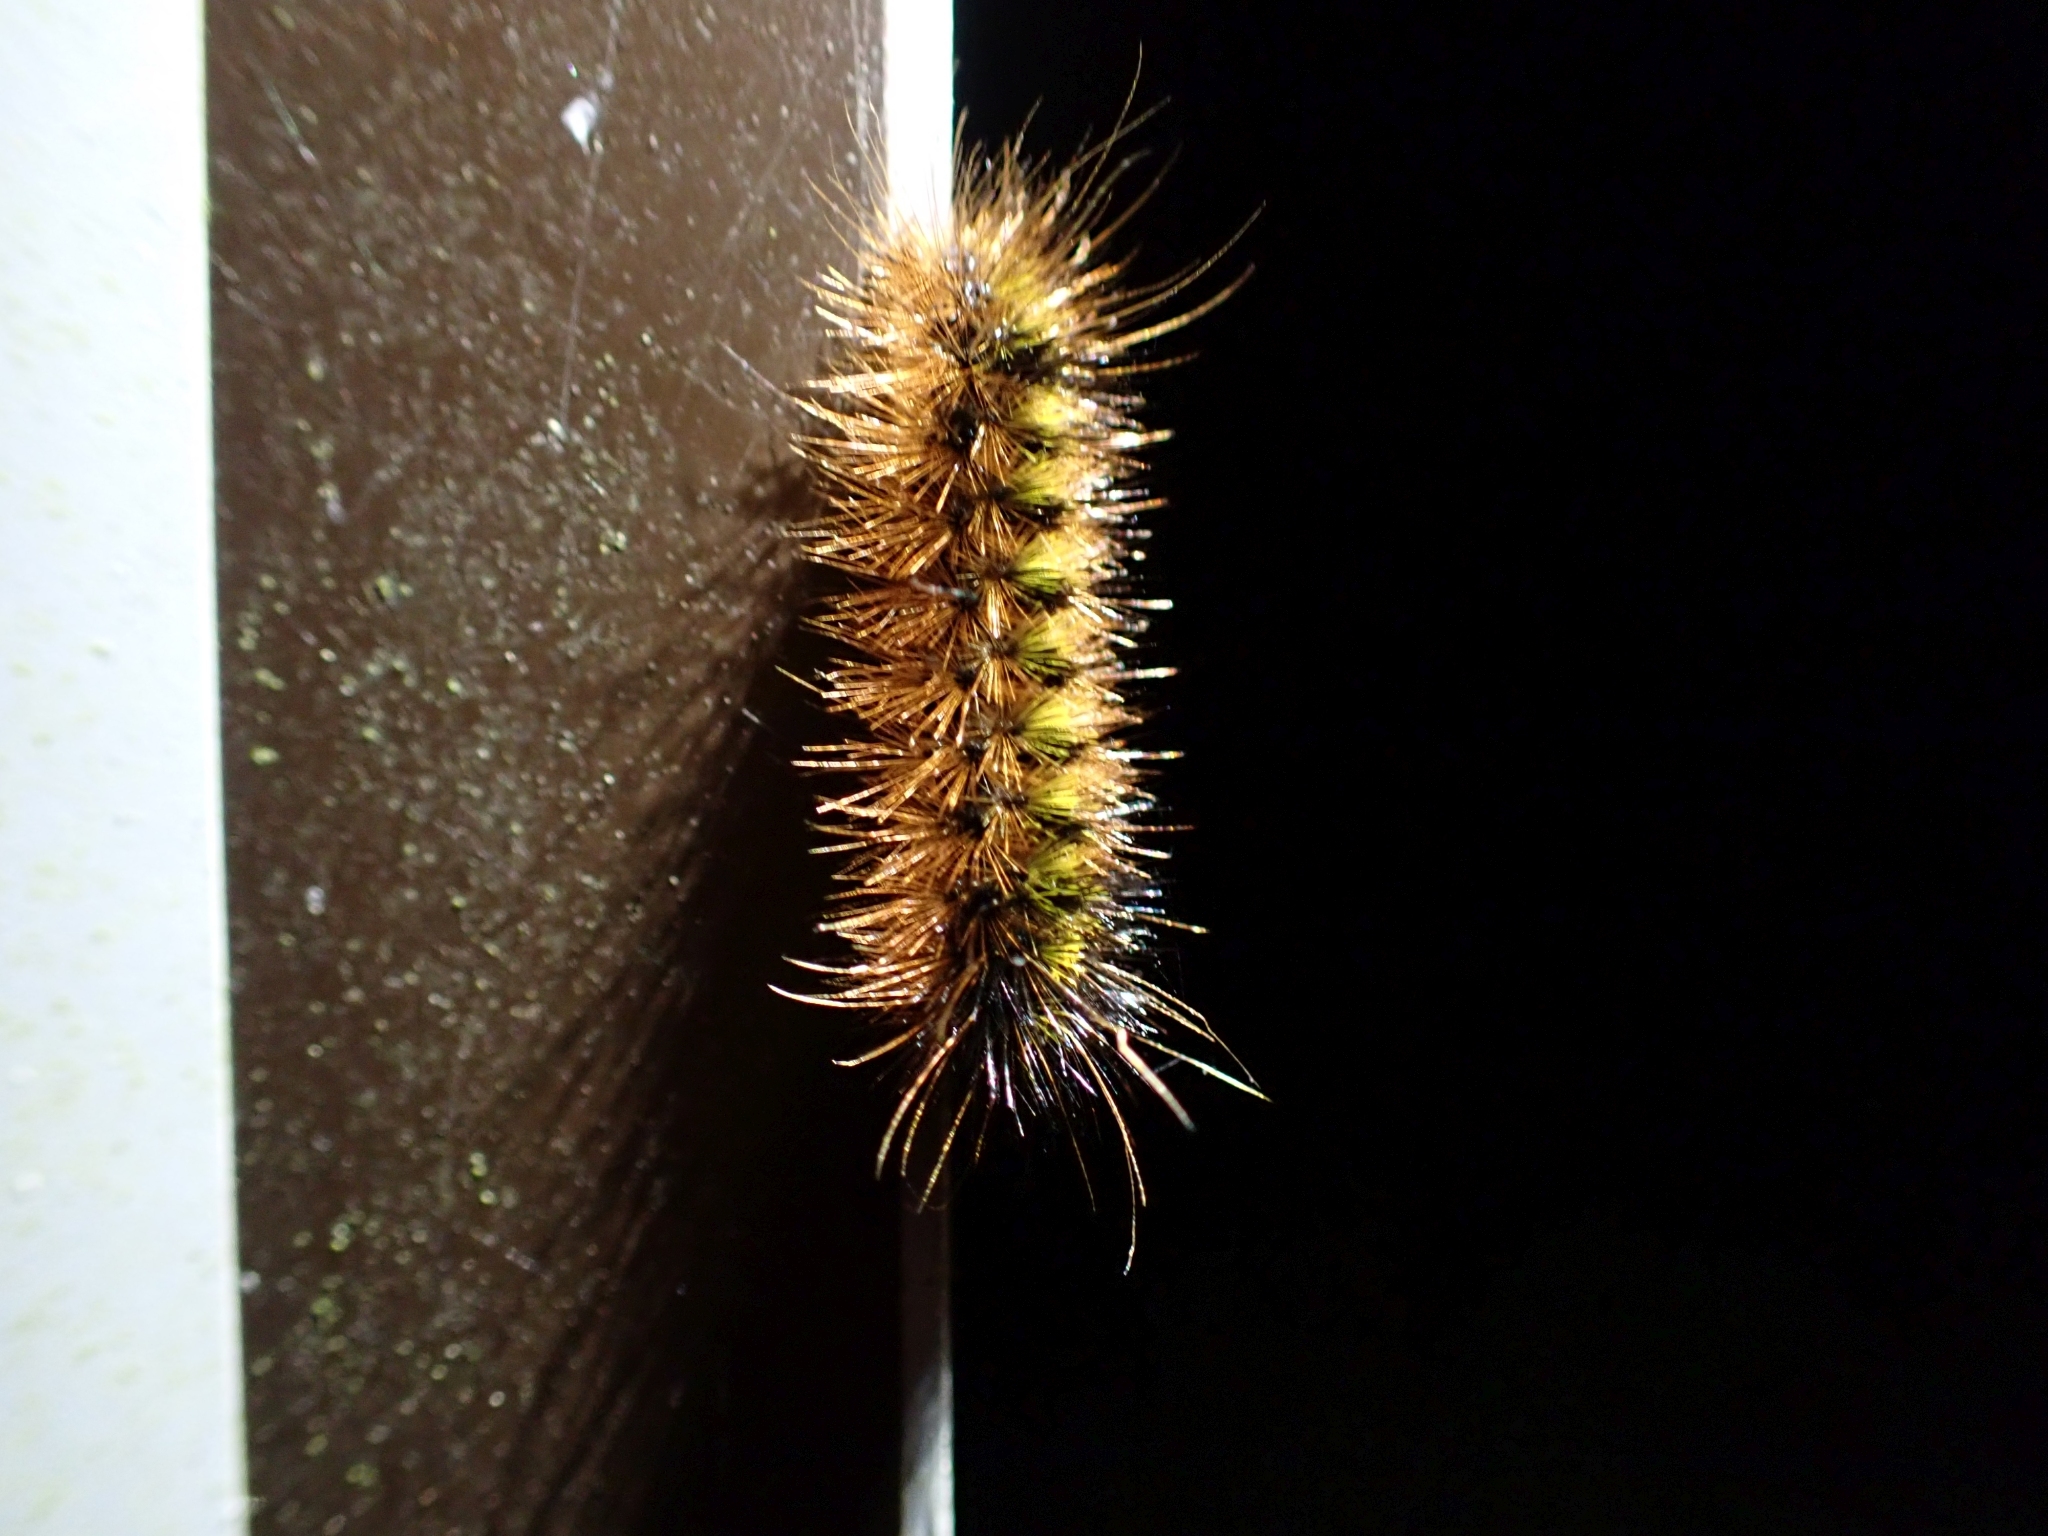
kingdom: Animalia
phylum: Arthropoda
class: Insecta
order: Lepidoptera
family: Erebidae
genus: Lophocampa
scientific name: Lophocampa argentata
